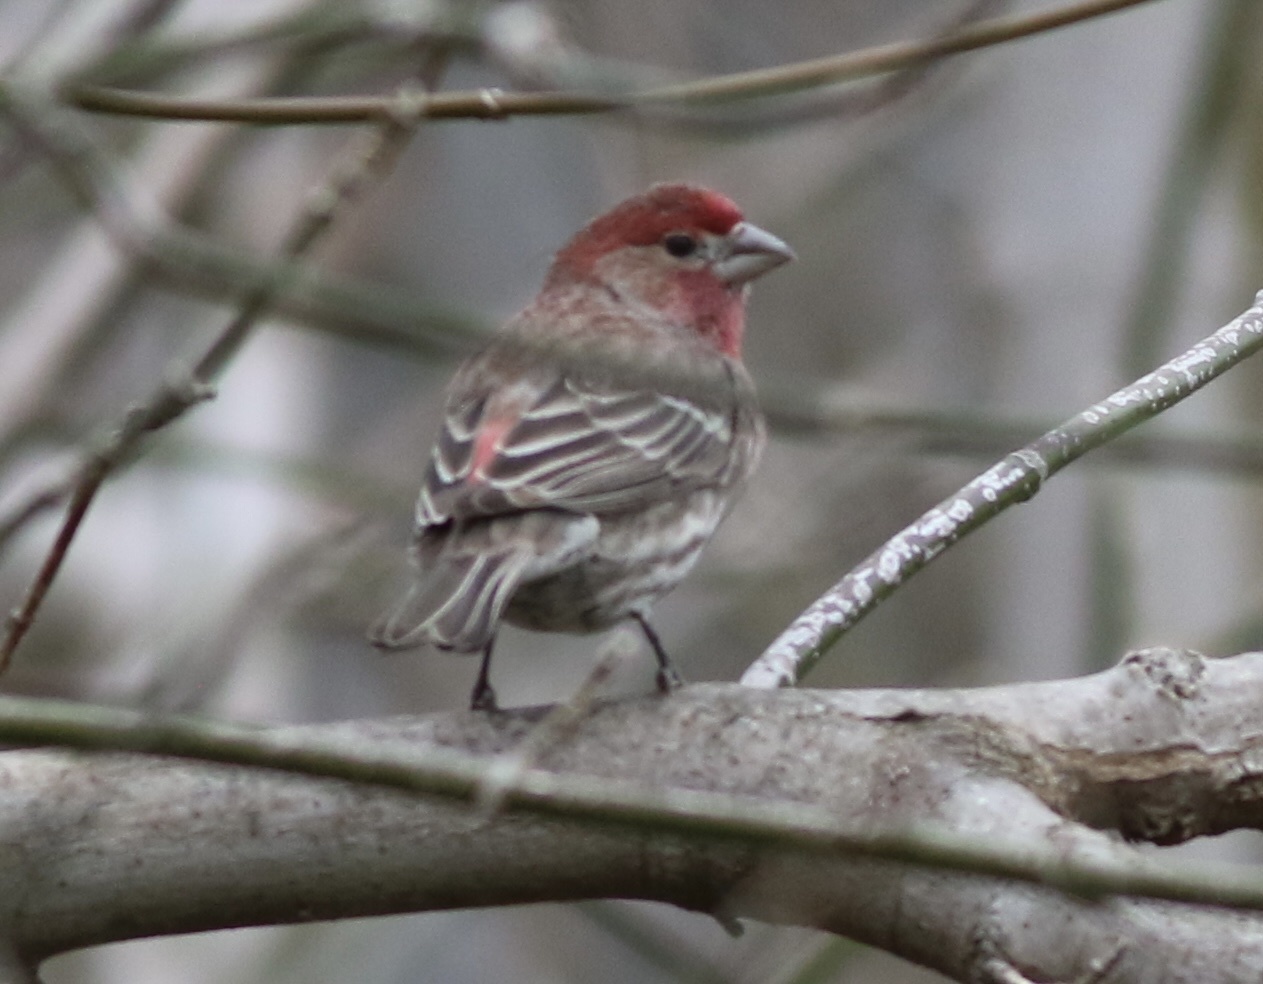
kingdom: Animalia
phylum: Chordata
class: Aves
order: Passeriformes
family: Fringillidae
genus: Haemorhous
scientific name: Haemorhous mexicanus
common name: House finch
